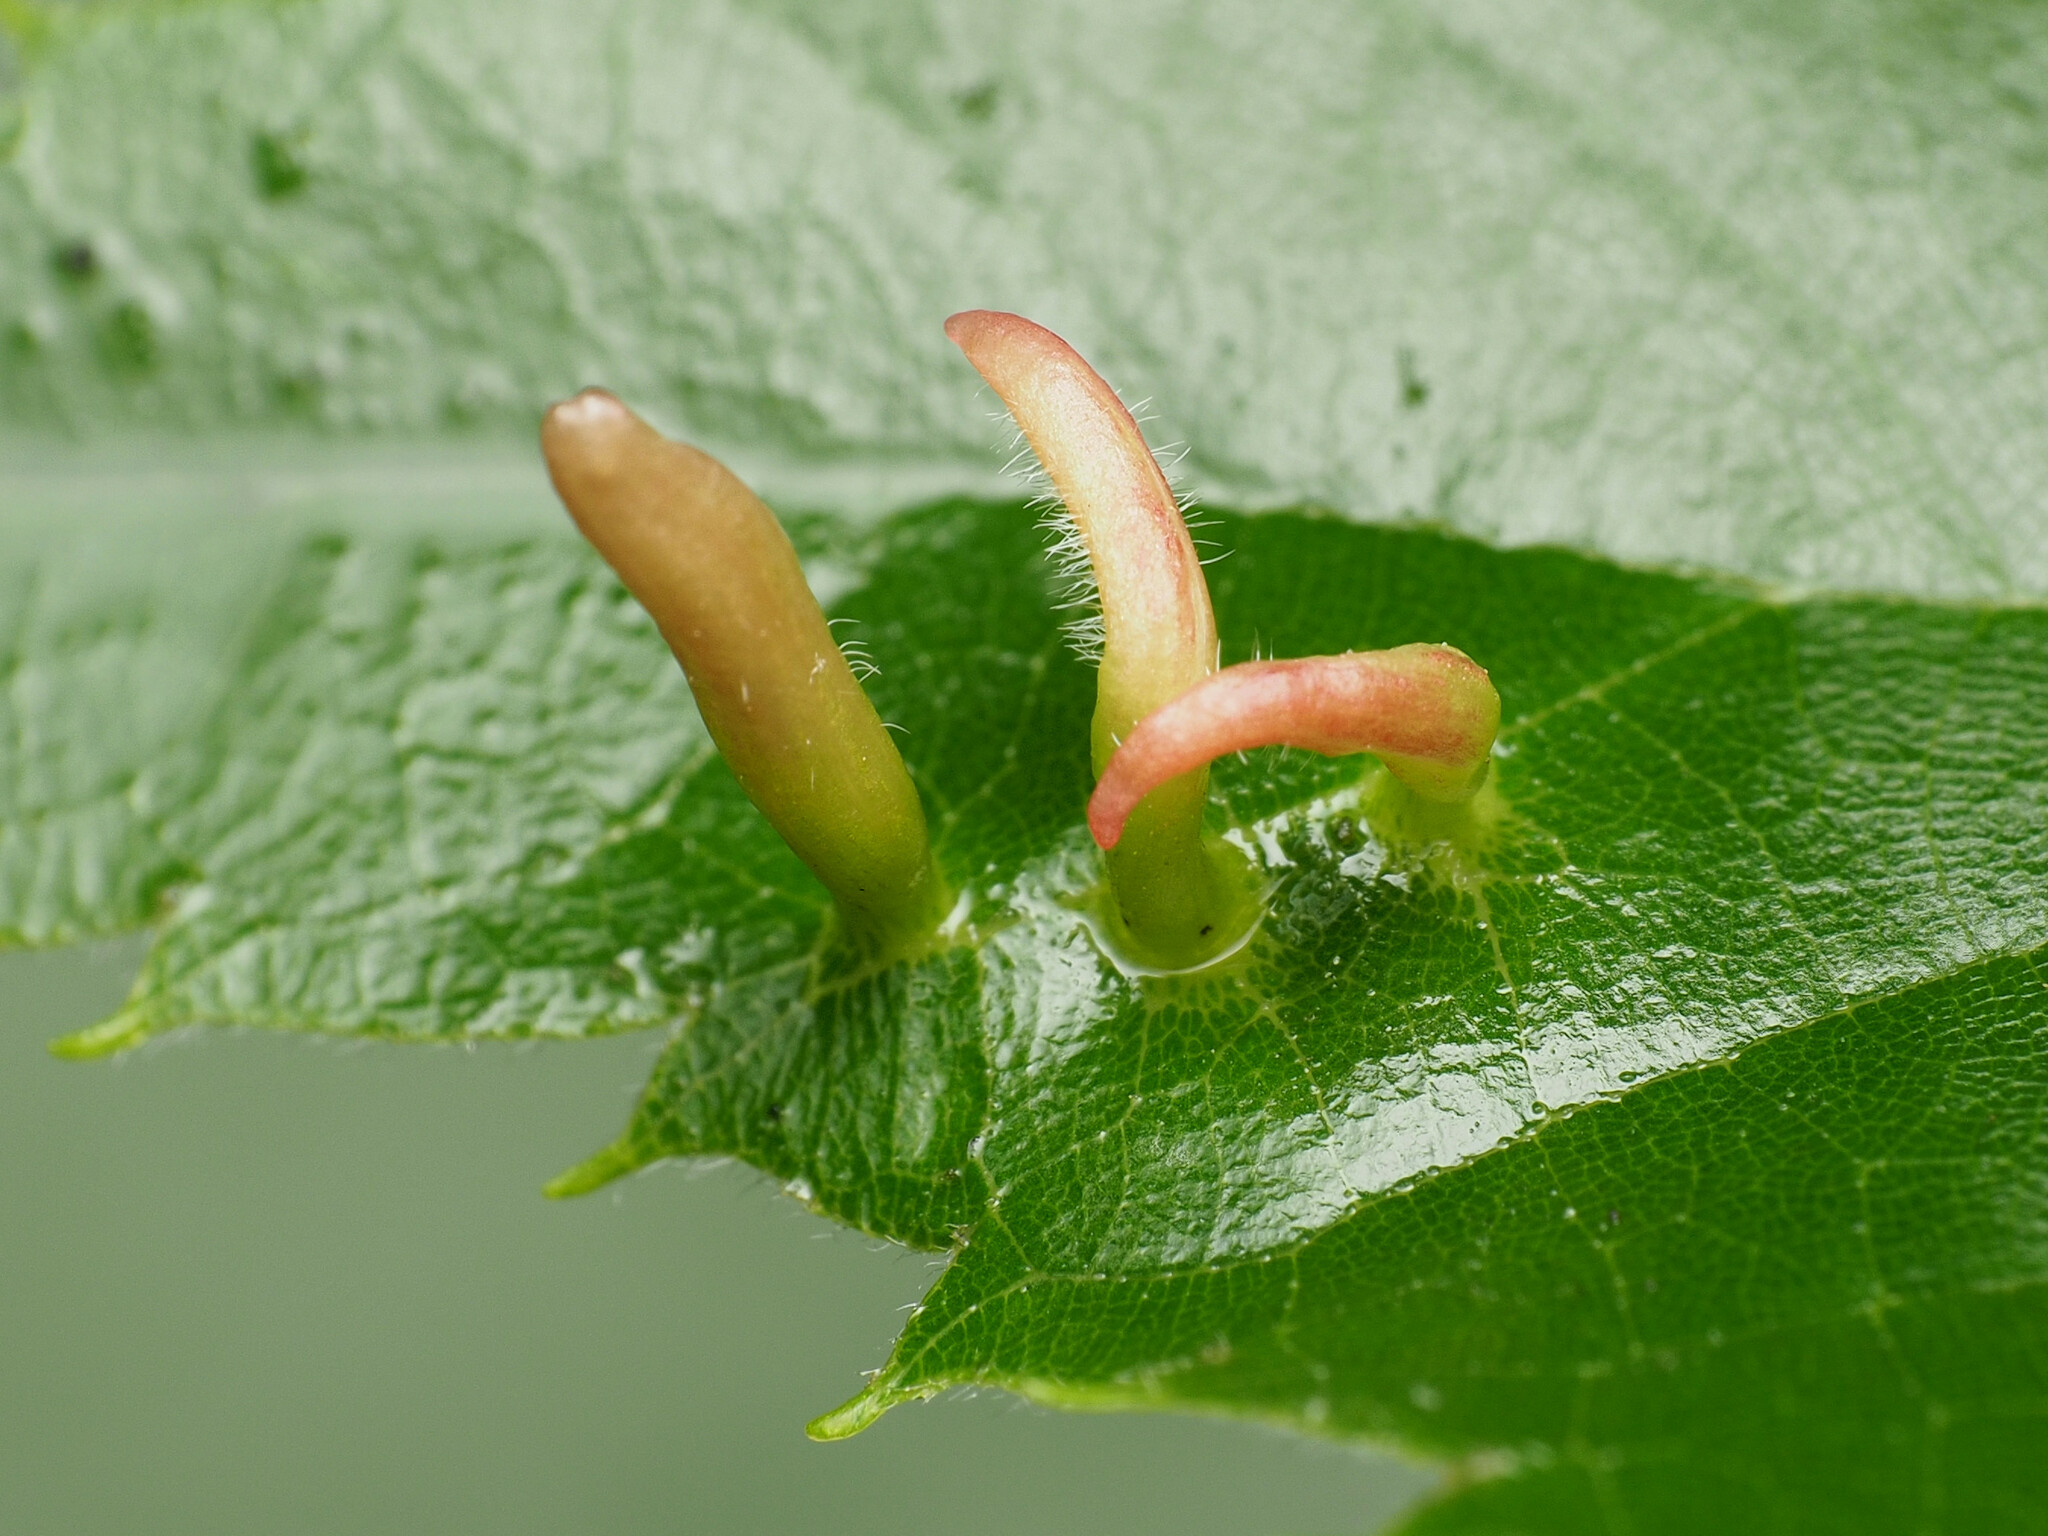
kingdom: Animalia
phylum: Arthropoda
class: Arachnida
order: Trombidiformes
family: Eriophyidae
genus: Eriophyes
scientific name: Eriophyes tiliae
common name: Red nail gall mite
